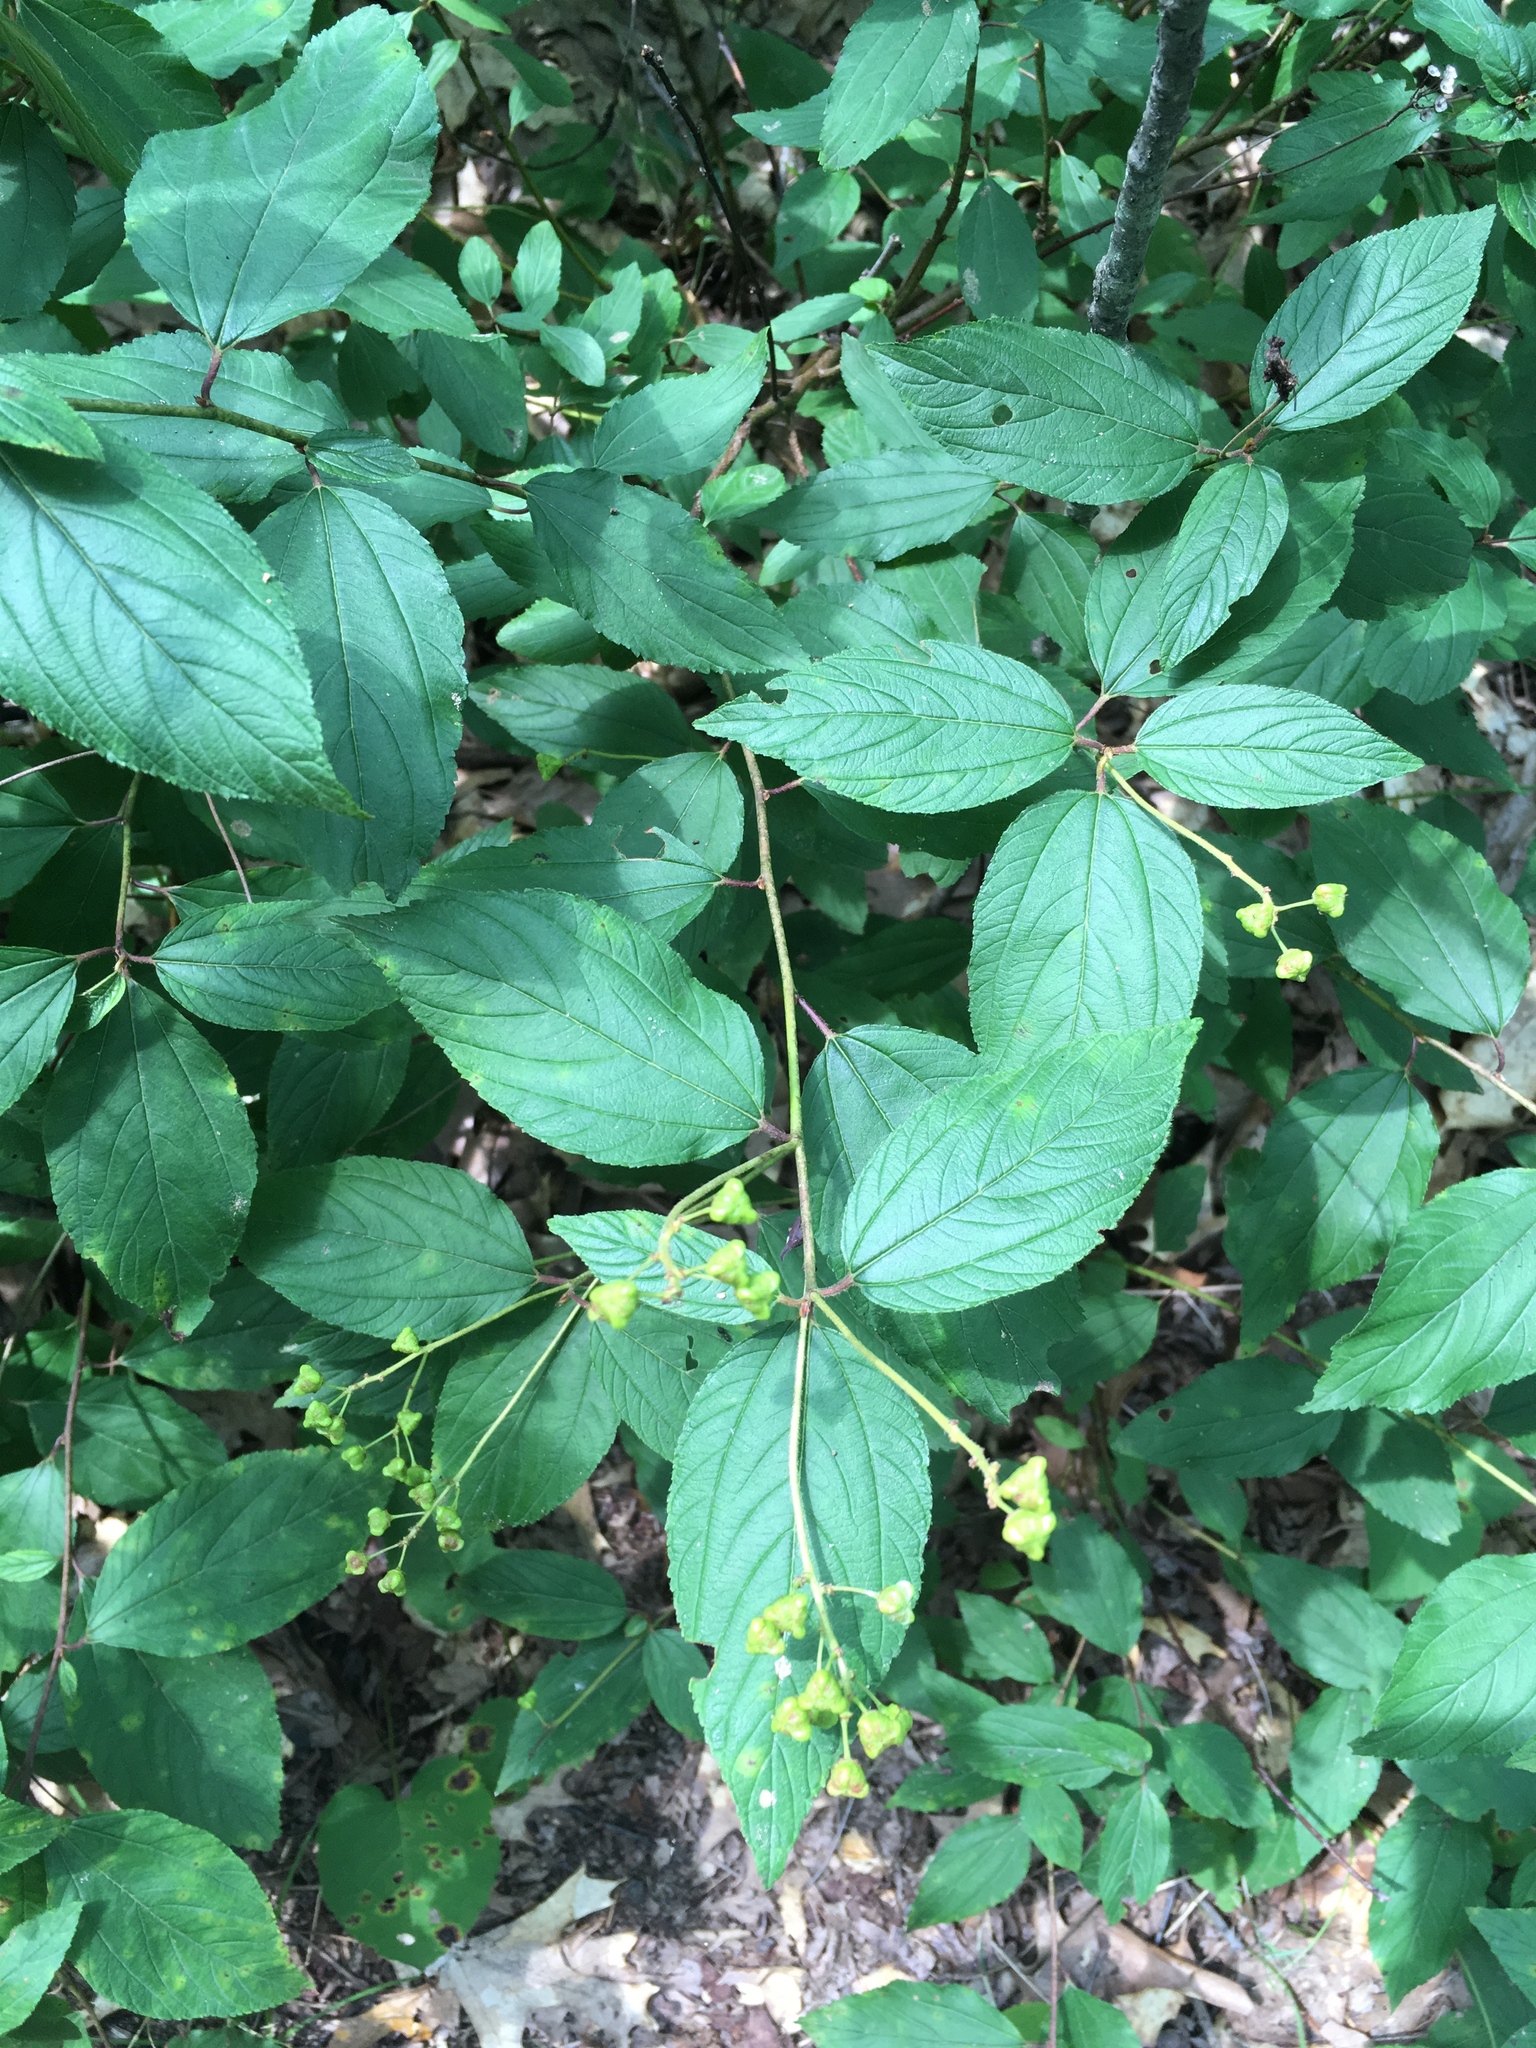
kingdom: Plantae
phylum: Tracheophyta
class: Magnoliopsida
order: Rosales
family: Rhamnaceae
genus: Ceanothus
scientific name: Ceanothus americanus
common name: Redroot
